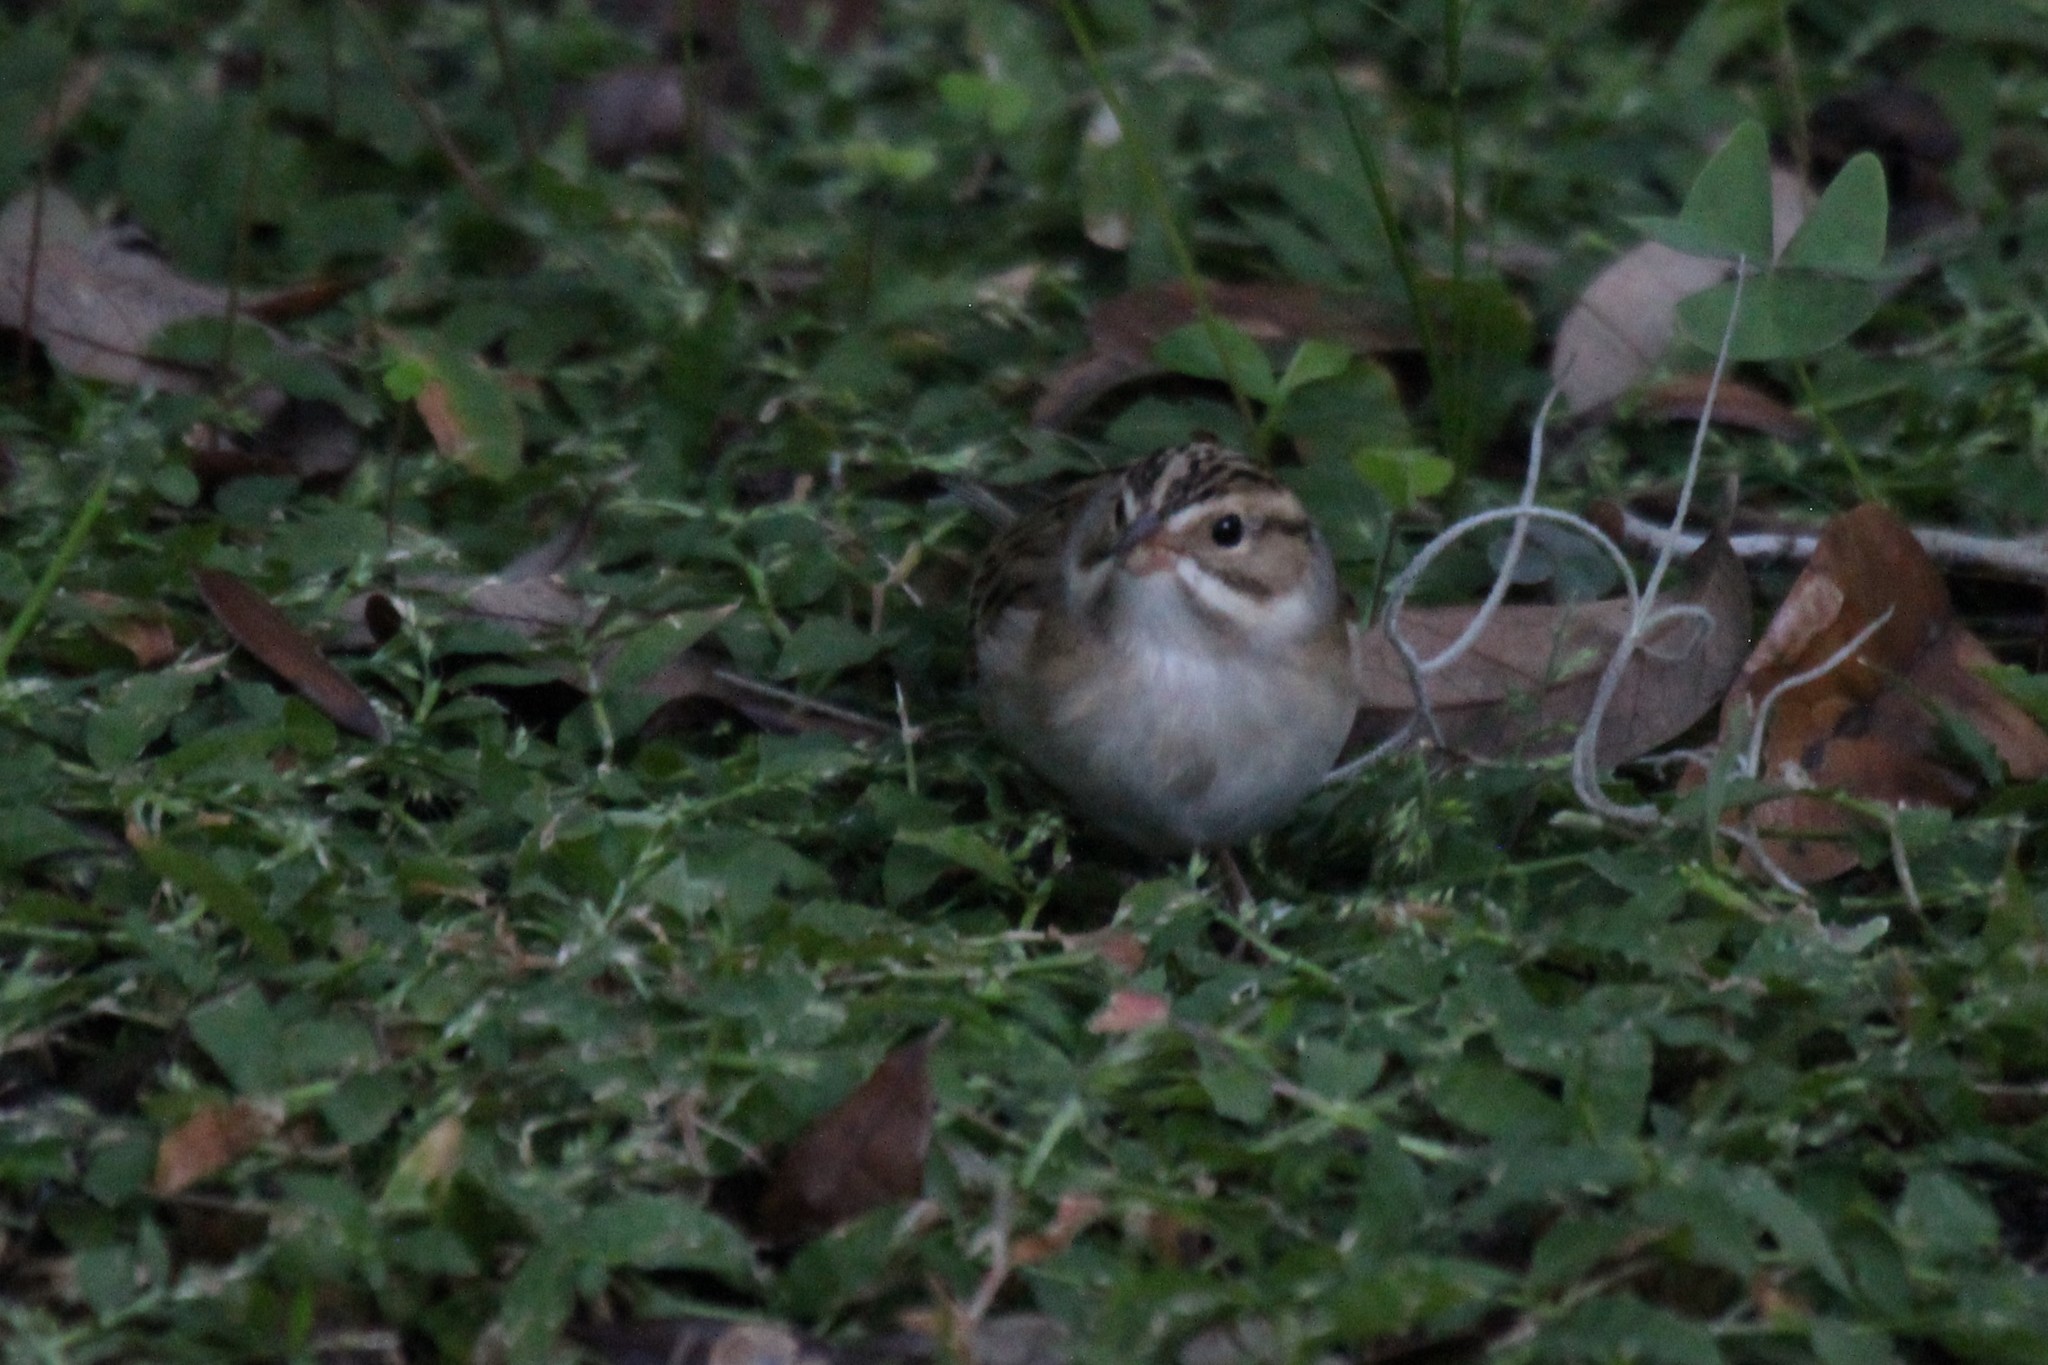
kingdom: Animalia
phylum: Chordata
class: Aves
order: Passeriformes
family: Passerellidae
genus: Spizella
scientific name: Spizella pallida
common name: Clay-colored sparrow
